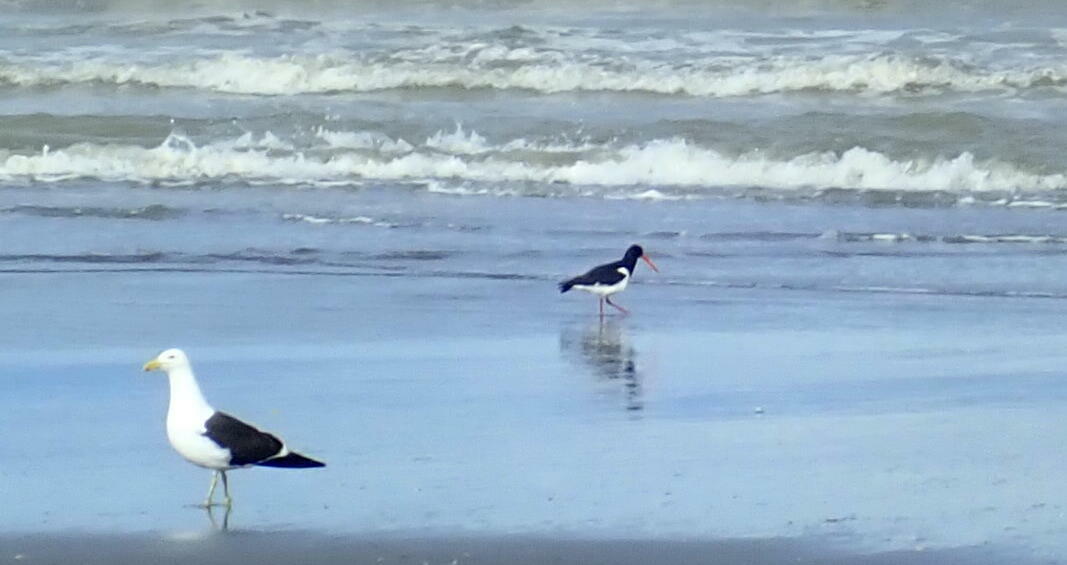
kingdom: Animalia
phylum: Chordata
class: Aves
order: Charadriiformes
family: Haematopodidae
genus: Haematopus
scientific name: Haematopus finschi
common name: South island oystercatcher
